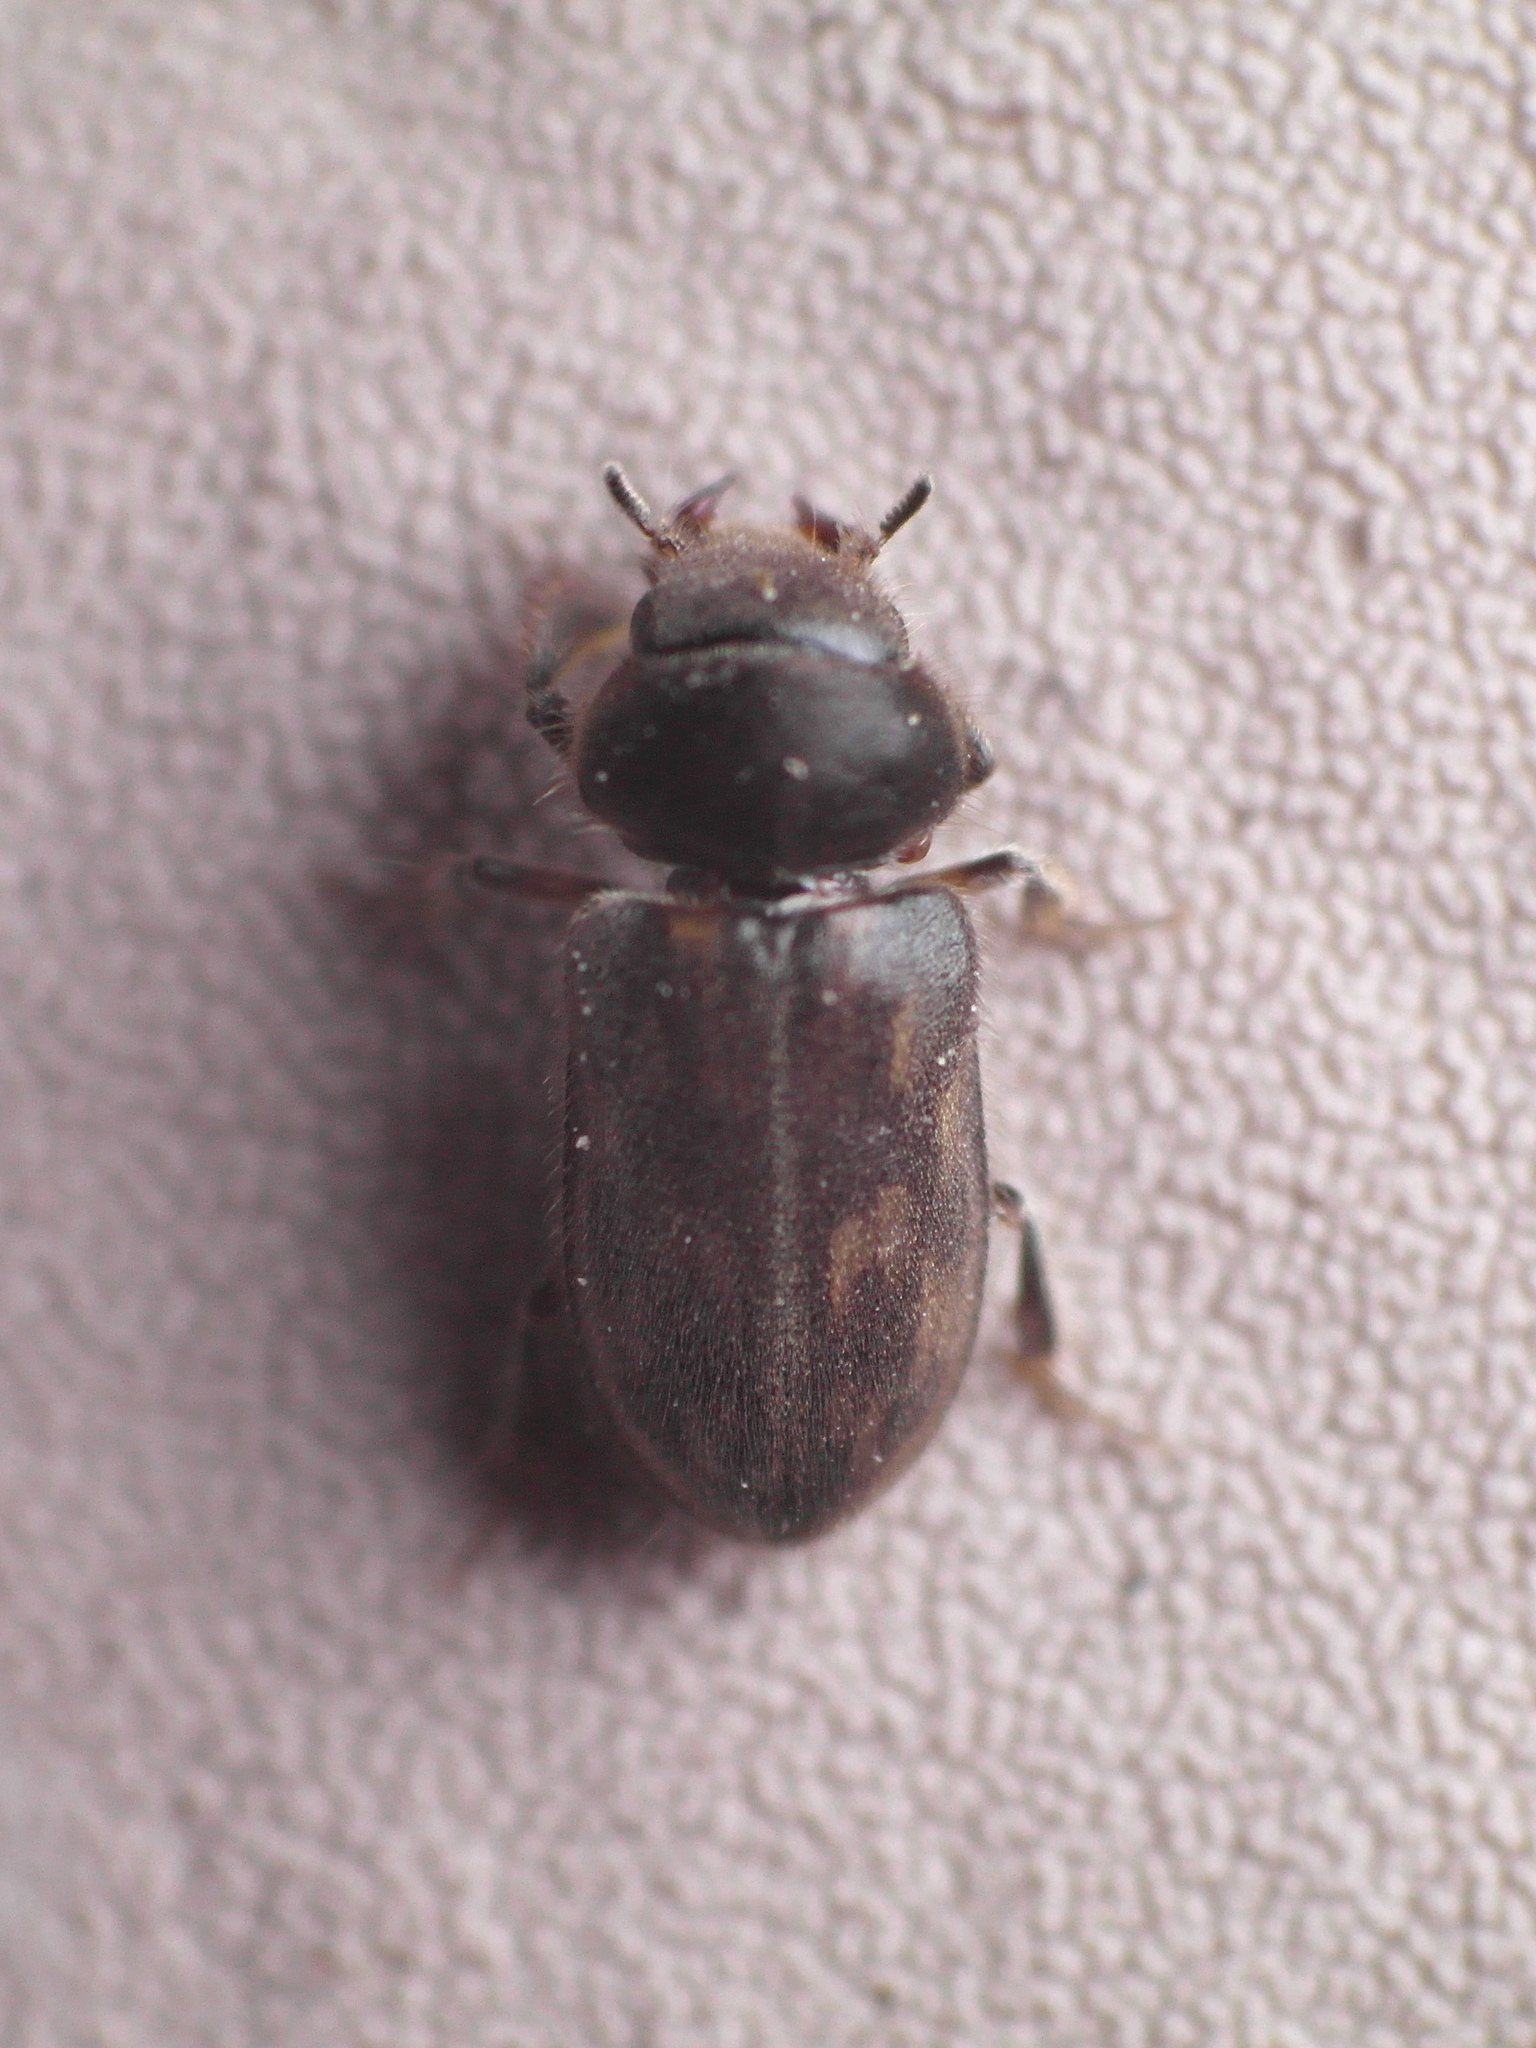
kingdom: Animalia
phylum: Arthropoda
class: Insecta
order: Coleoptera
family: Heteroceridae
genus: Heterocerus
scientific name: Heterocerus fenestratus
